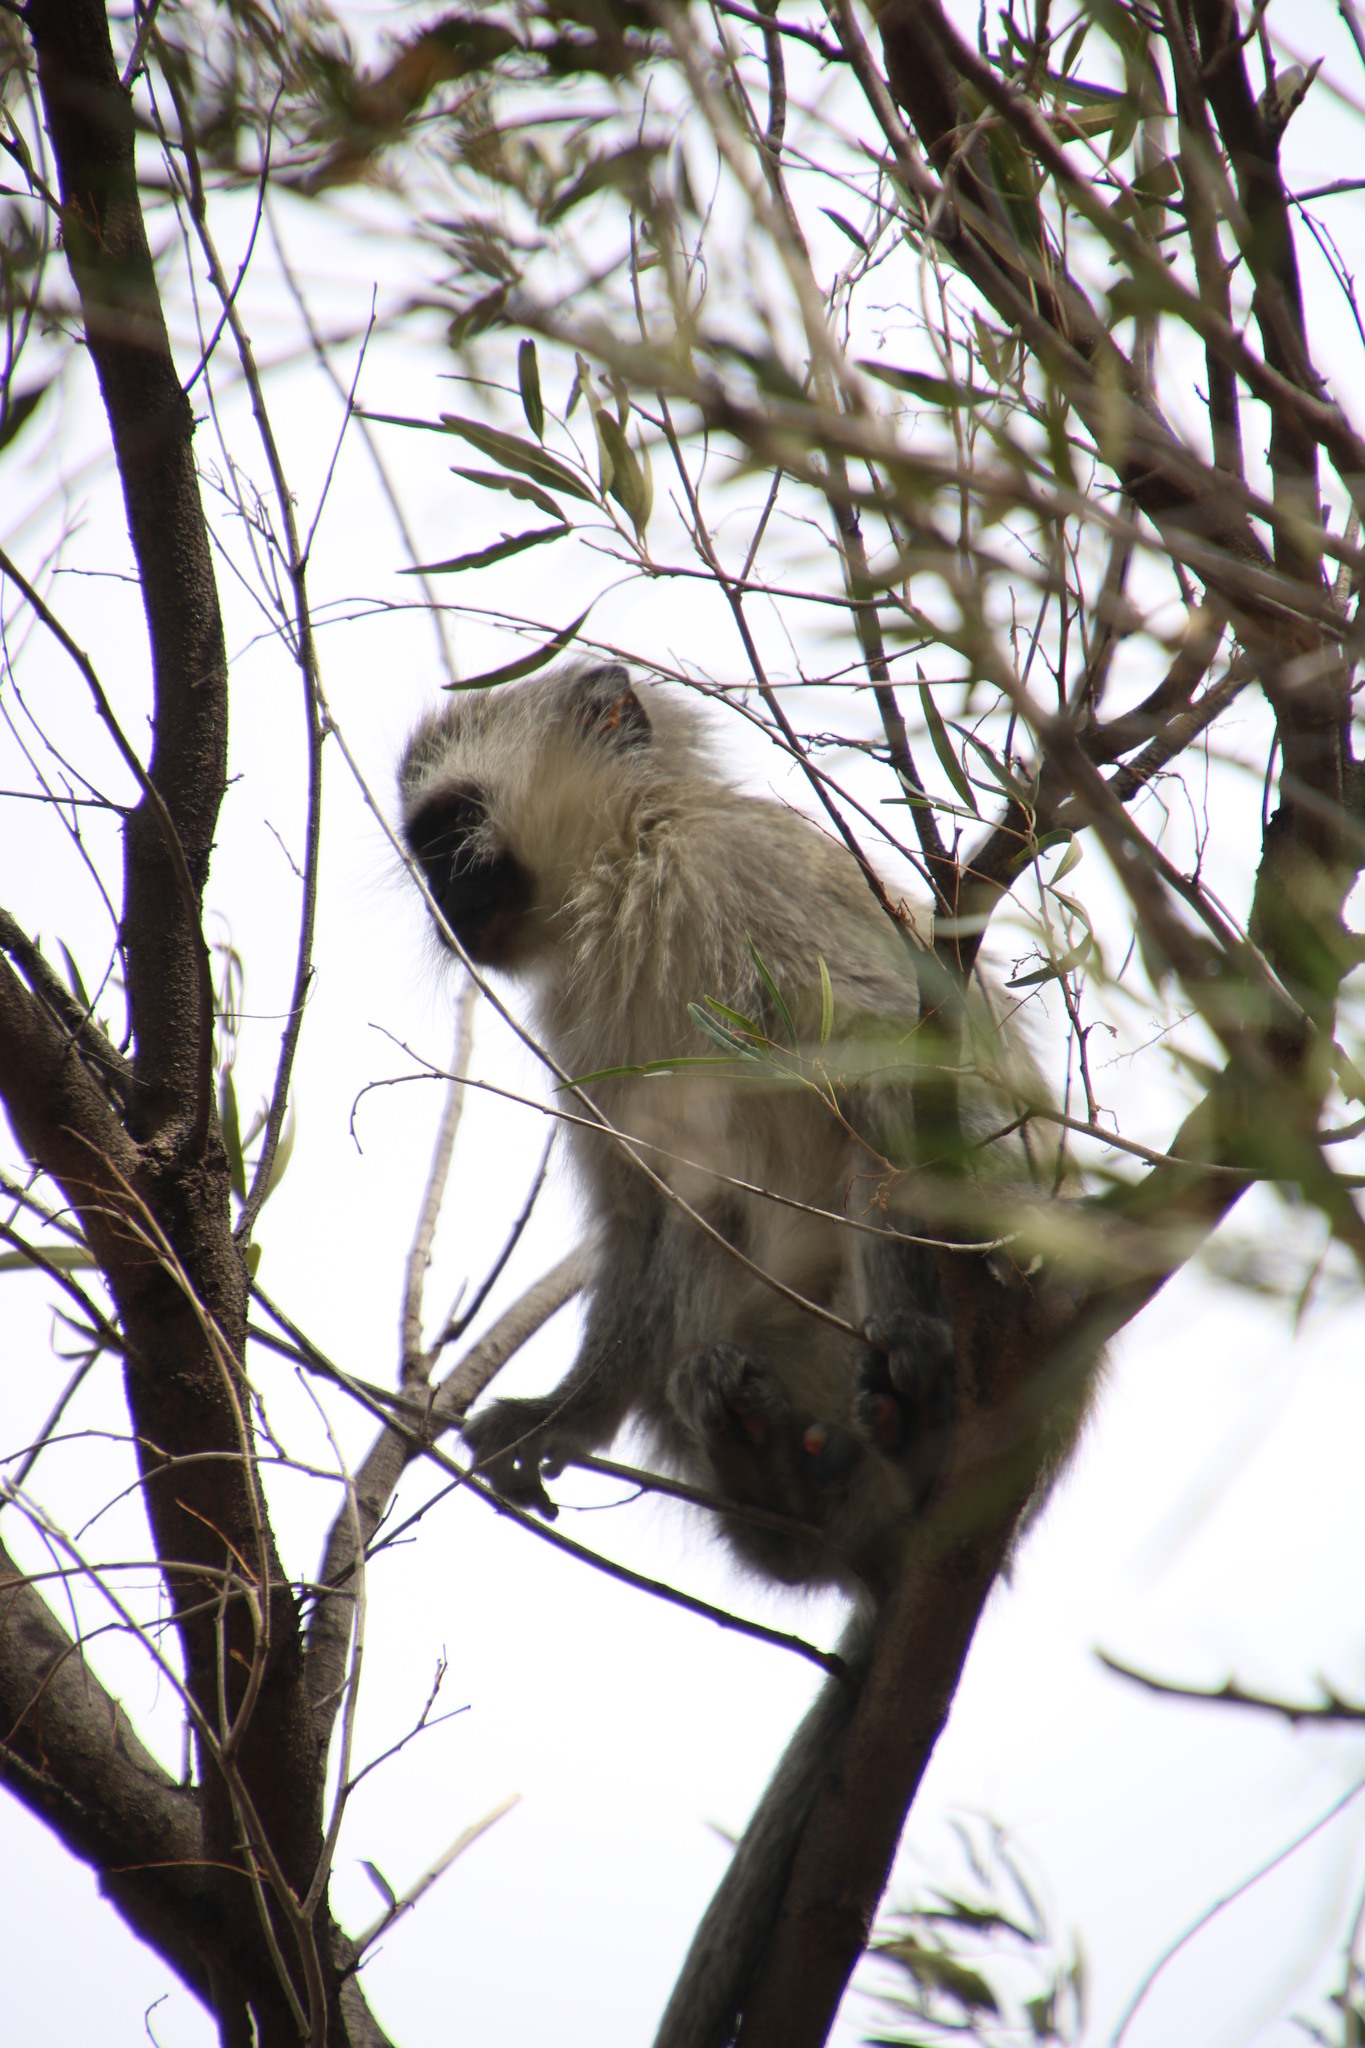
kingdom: Animalia
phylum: Chordata
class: Mammalia
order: Primates
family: Cercopithecidae
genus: Chlorocebus
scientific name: Chlorocebus pygerythrus
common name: Vervet monkey
